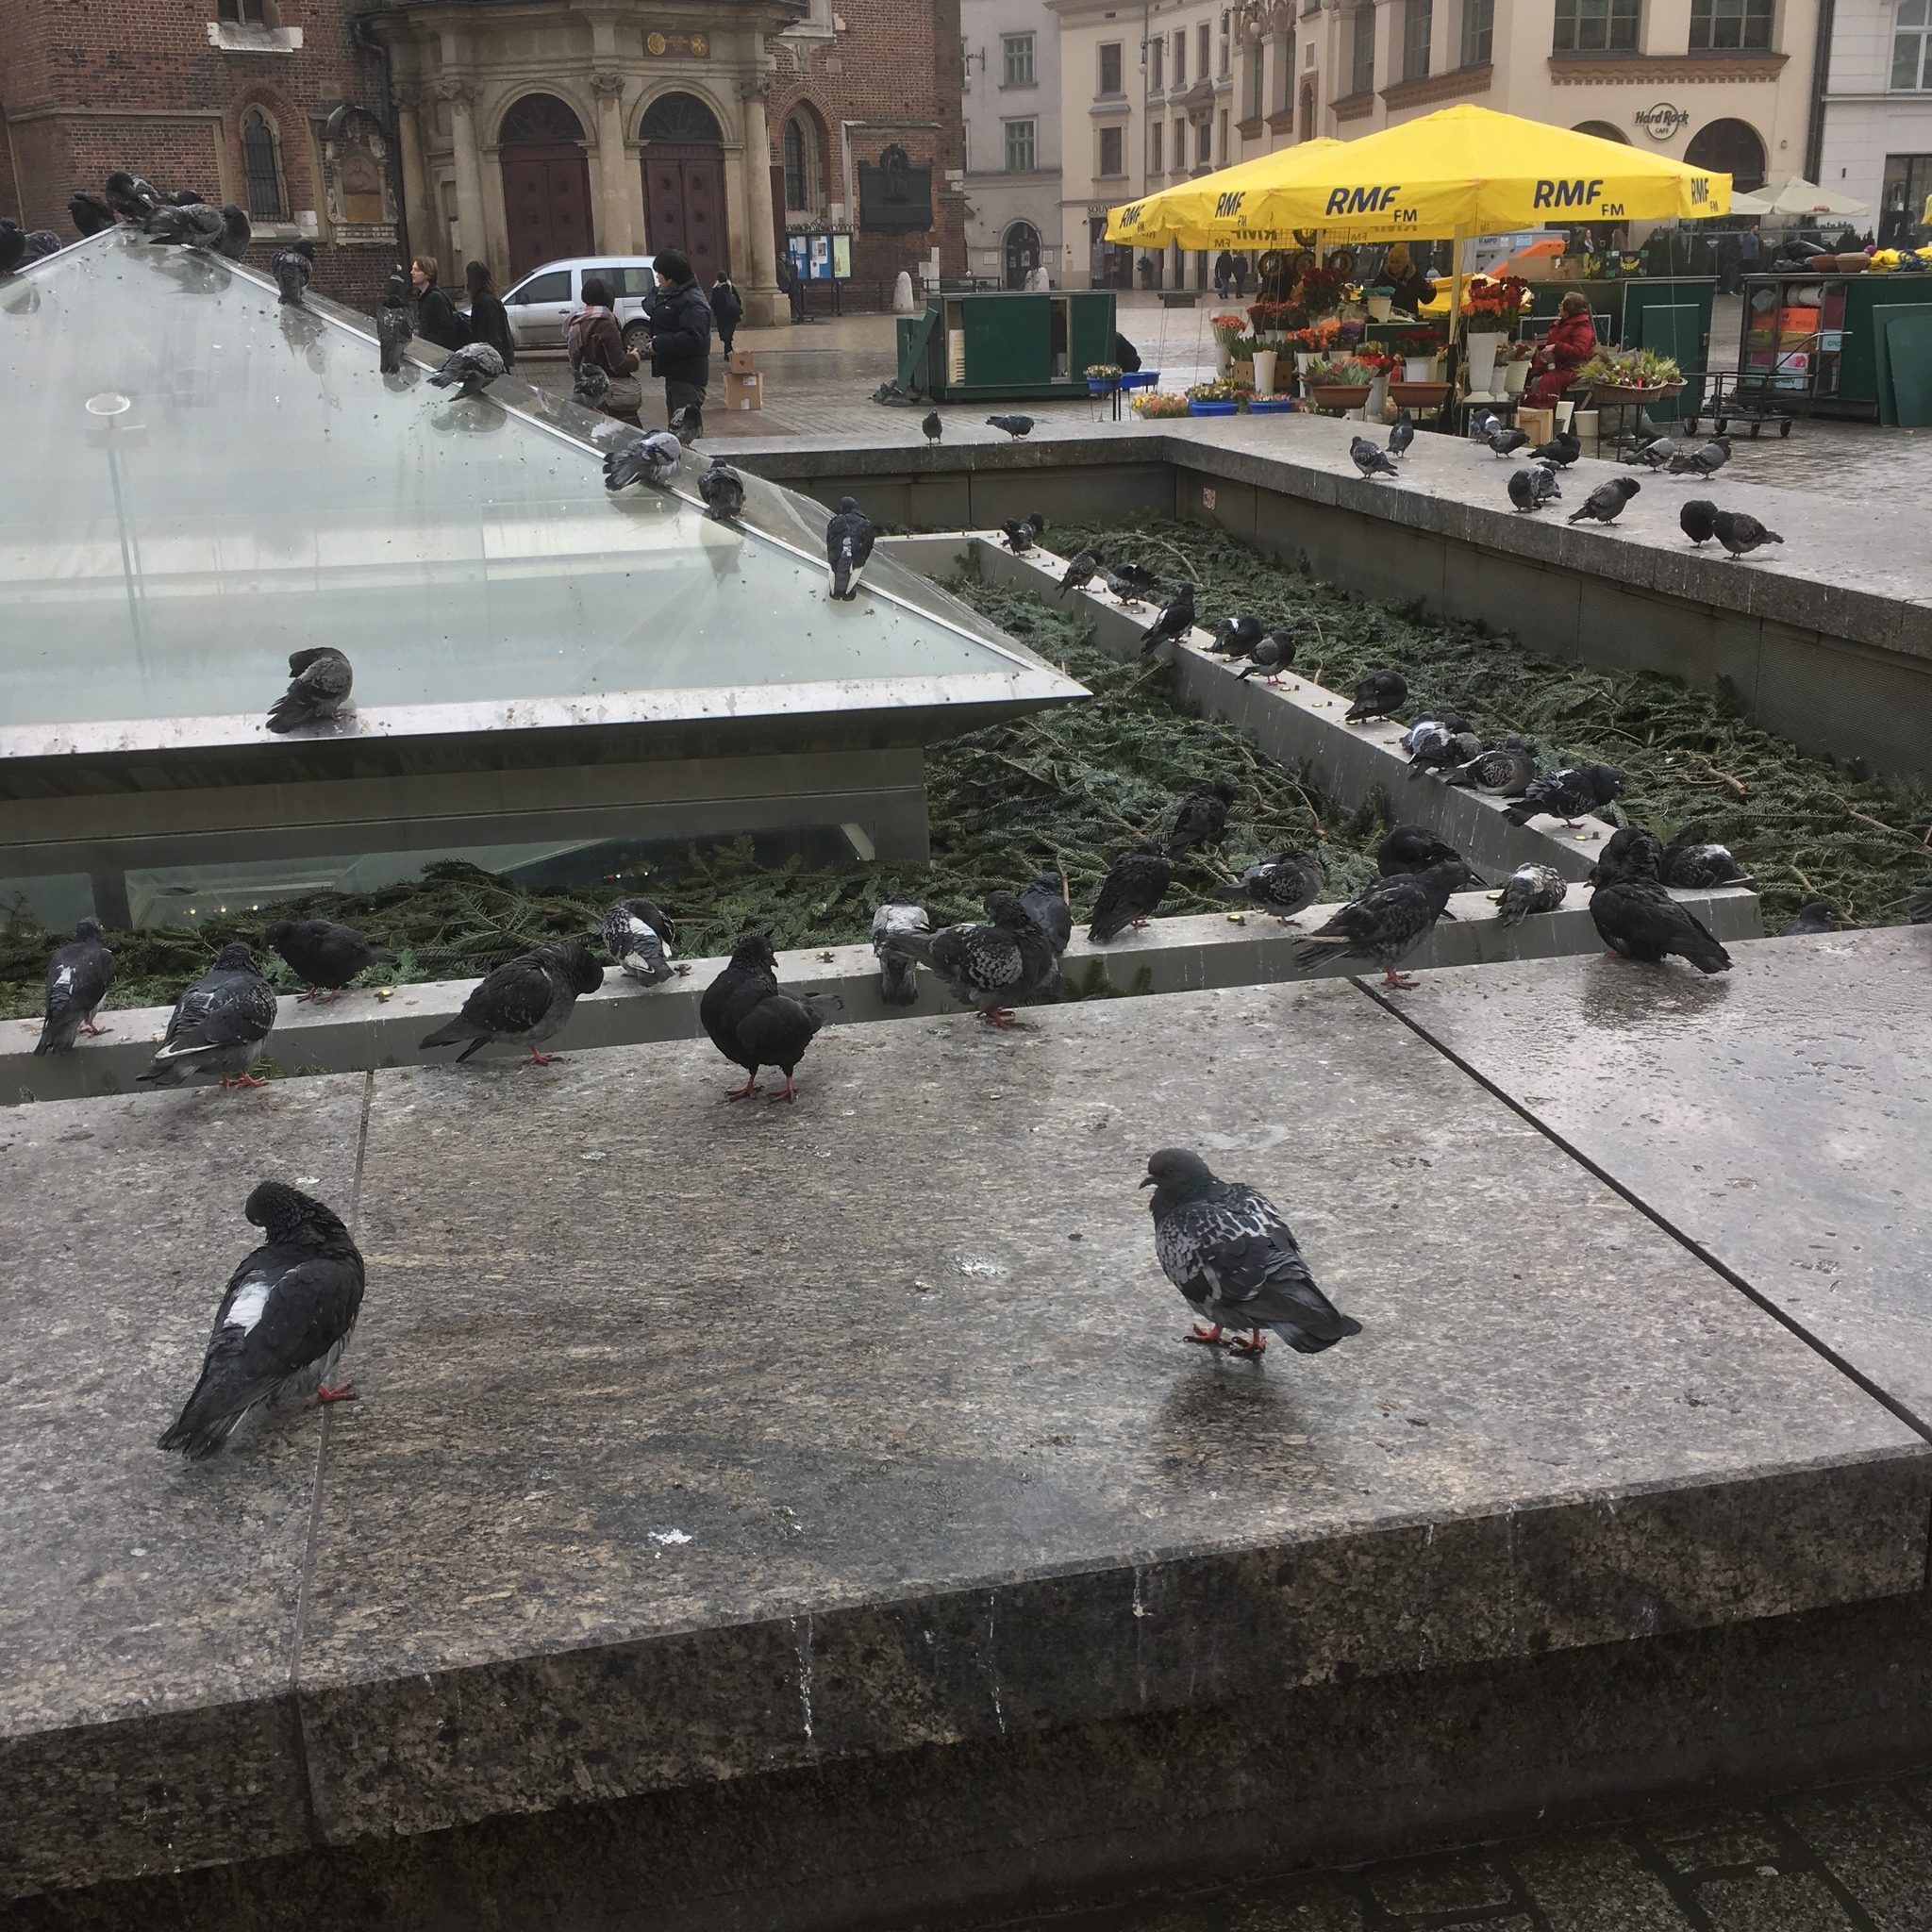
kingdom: Animalia
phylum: Chordata
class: Aves
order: Columbiformes
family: Columbidae
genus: Columba
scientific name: Columba livia
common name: Rock pigeon
